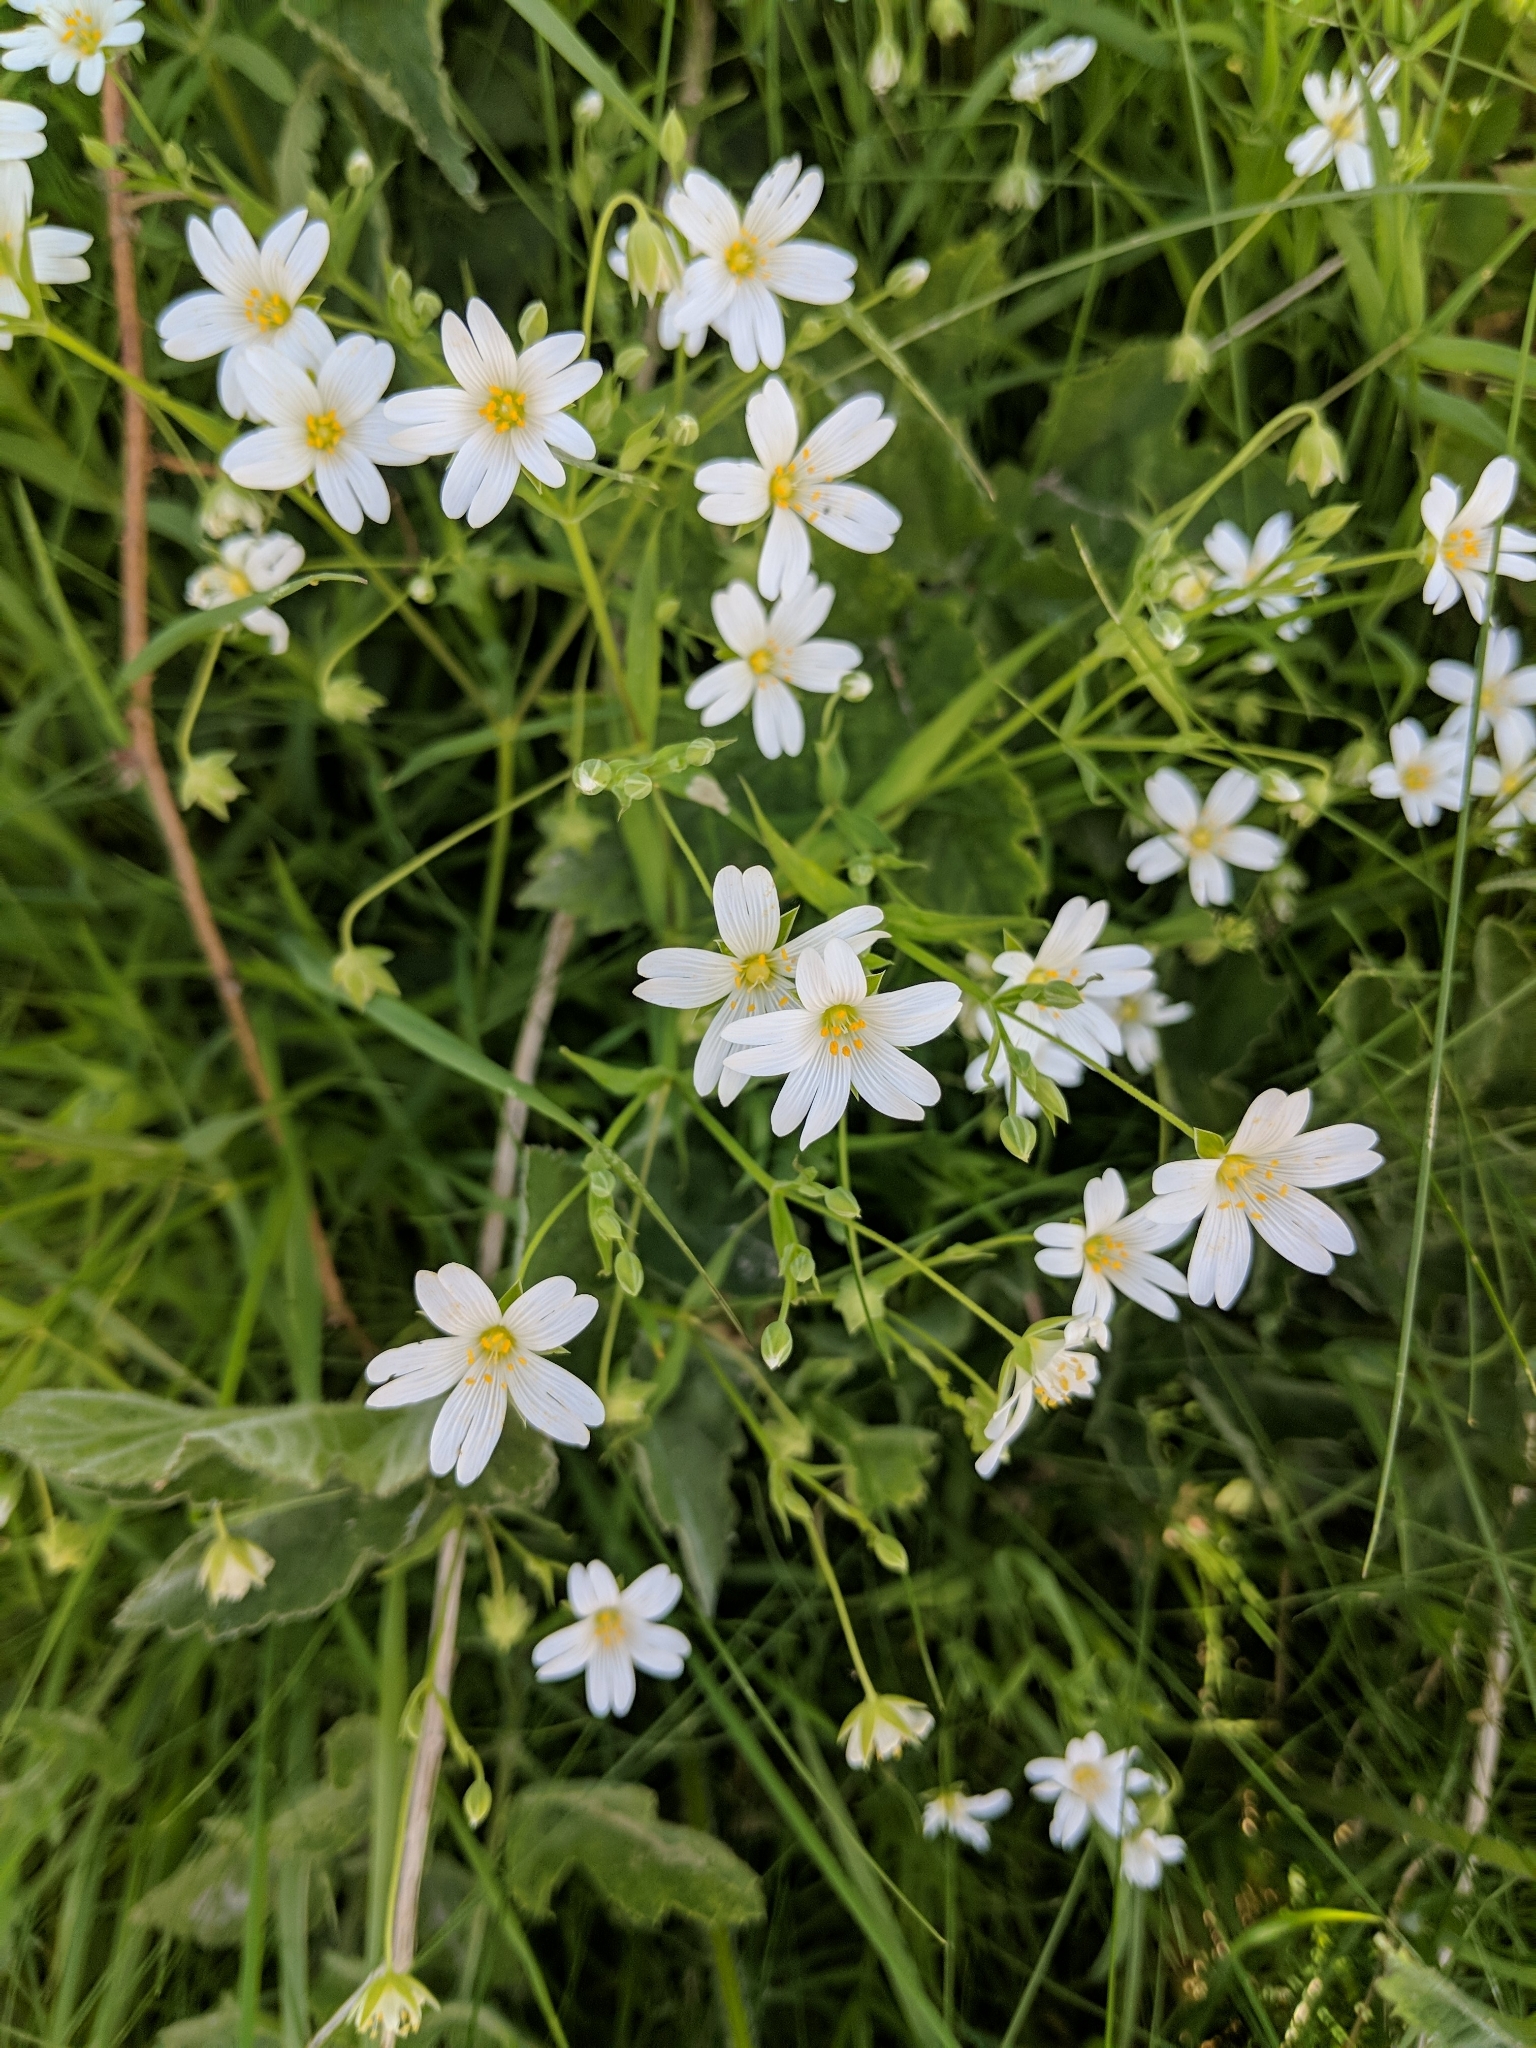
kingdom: Plantae
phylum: Tracheophyta
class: Magnoliopsida
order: Caryophyllales
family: Caryophyllaceae
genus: Rabelera
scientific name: Rabelera holostea
